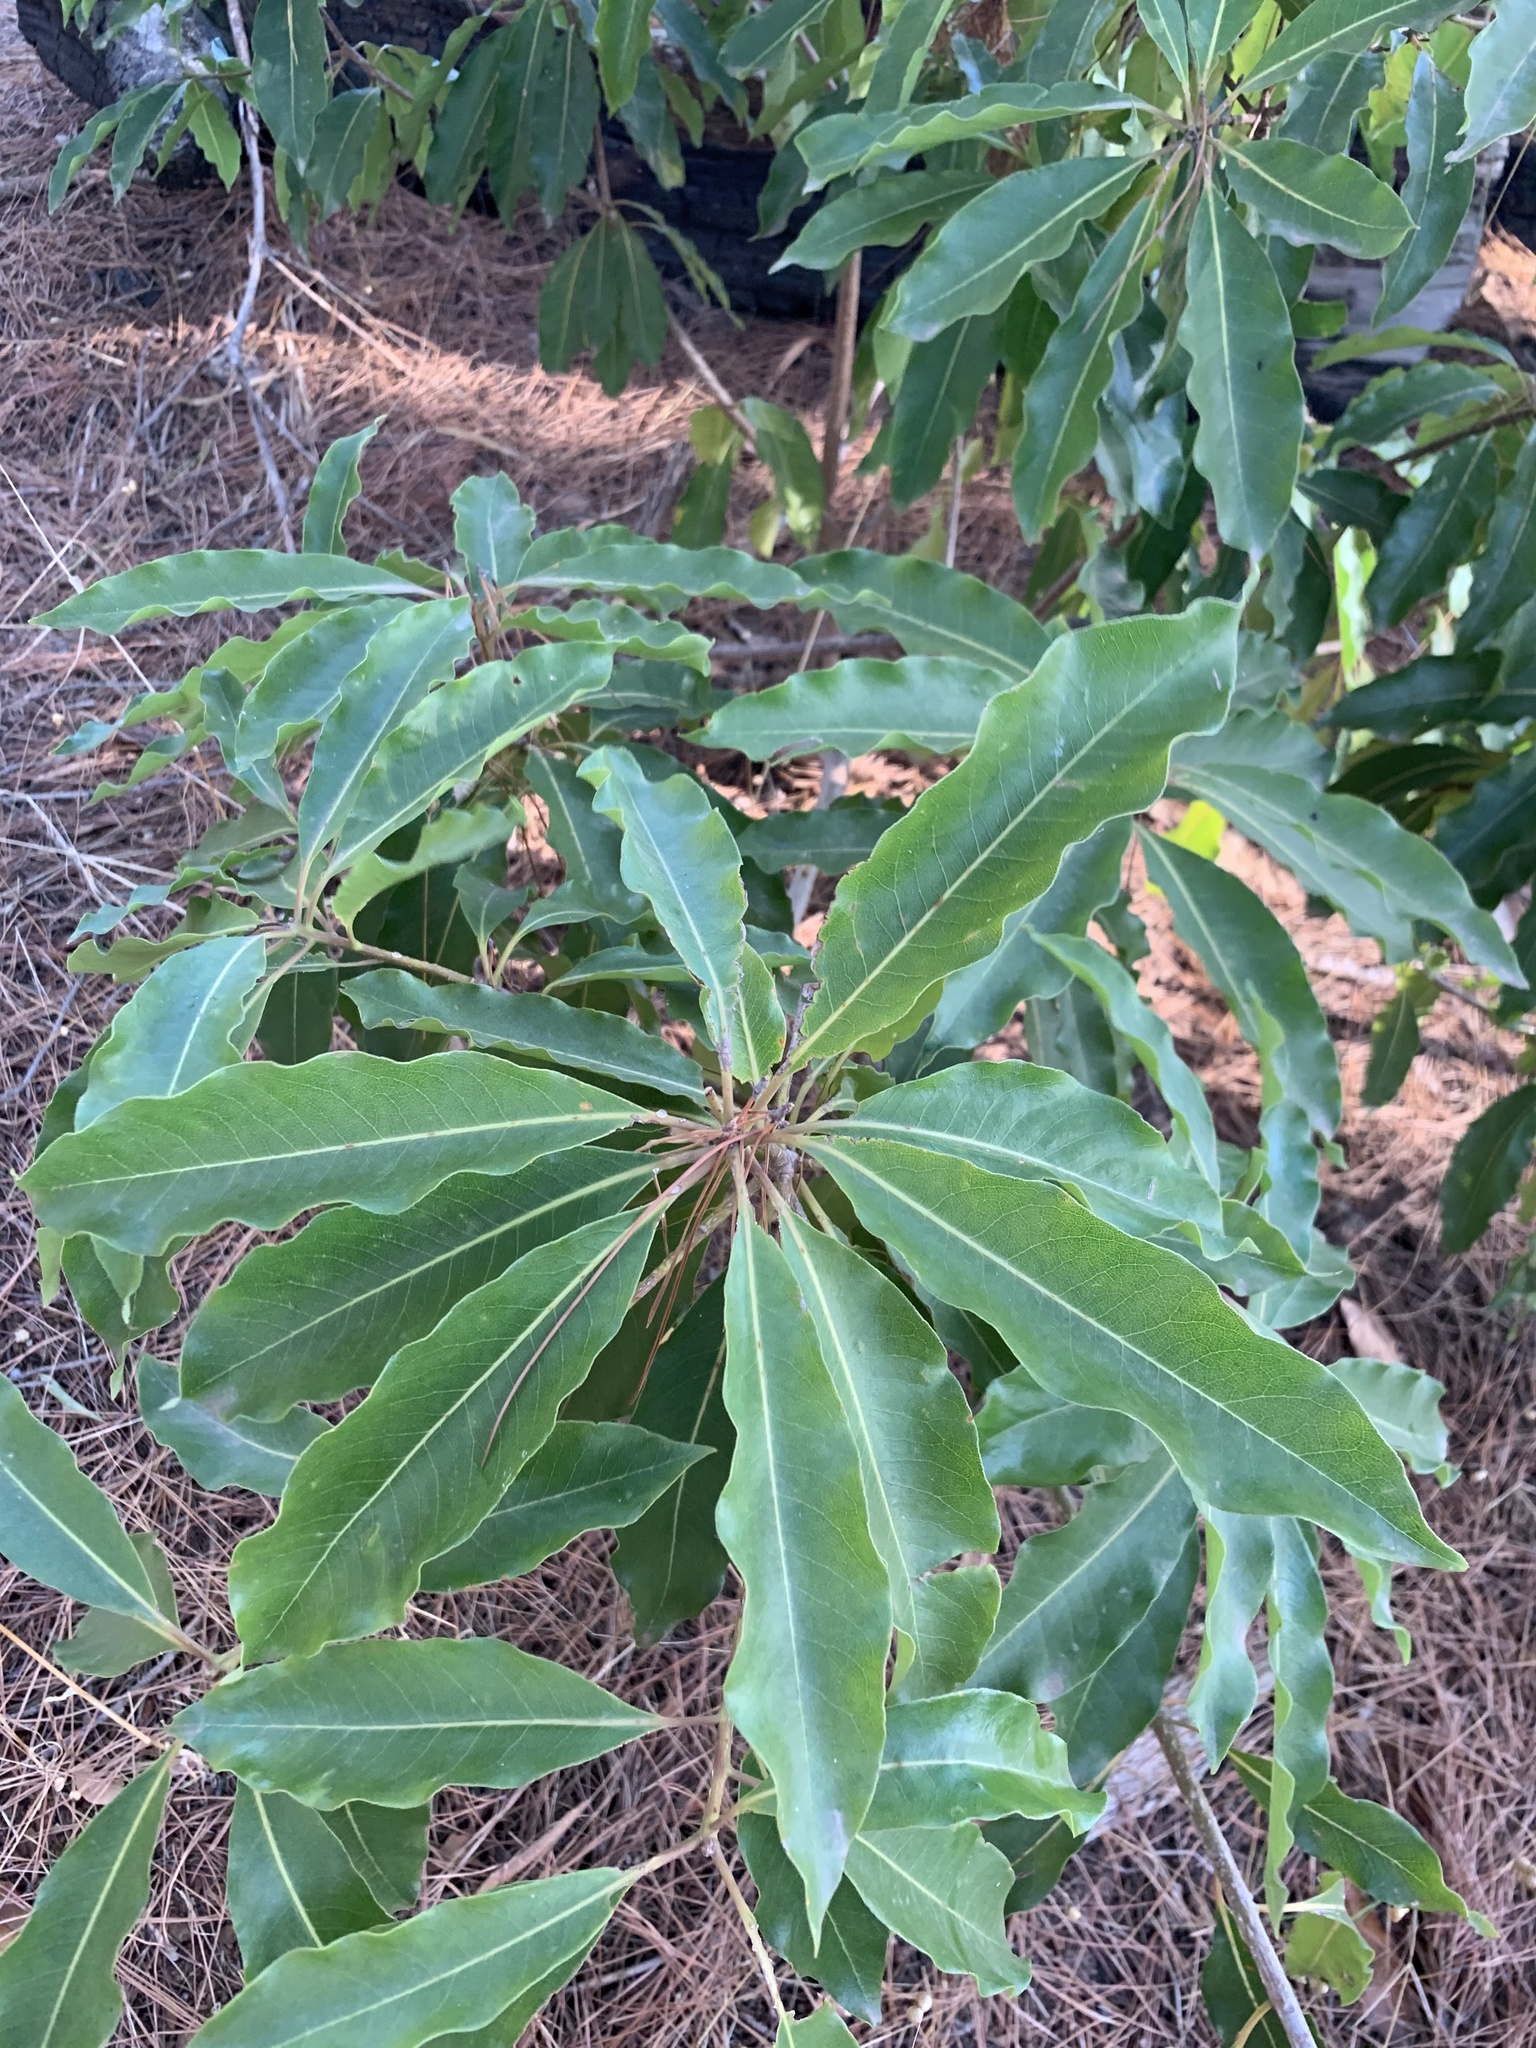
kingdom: Plantae
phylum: Tracheophyta
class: Magnoliopsida
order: Apiales
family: Pittosporaceae
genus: Pittosporum
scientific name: Pittosporum undulatum
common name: Australian cheesewood
